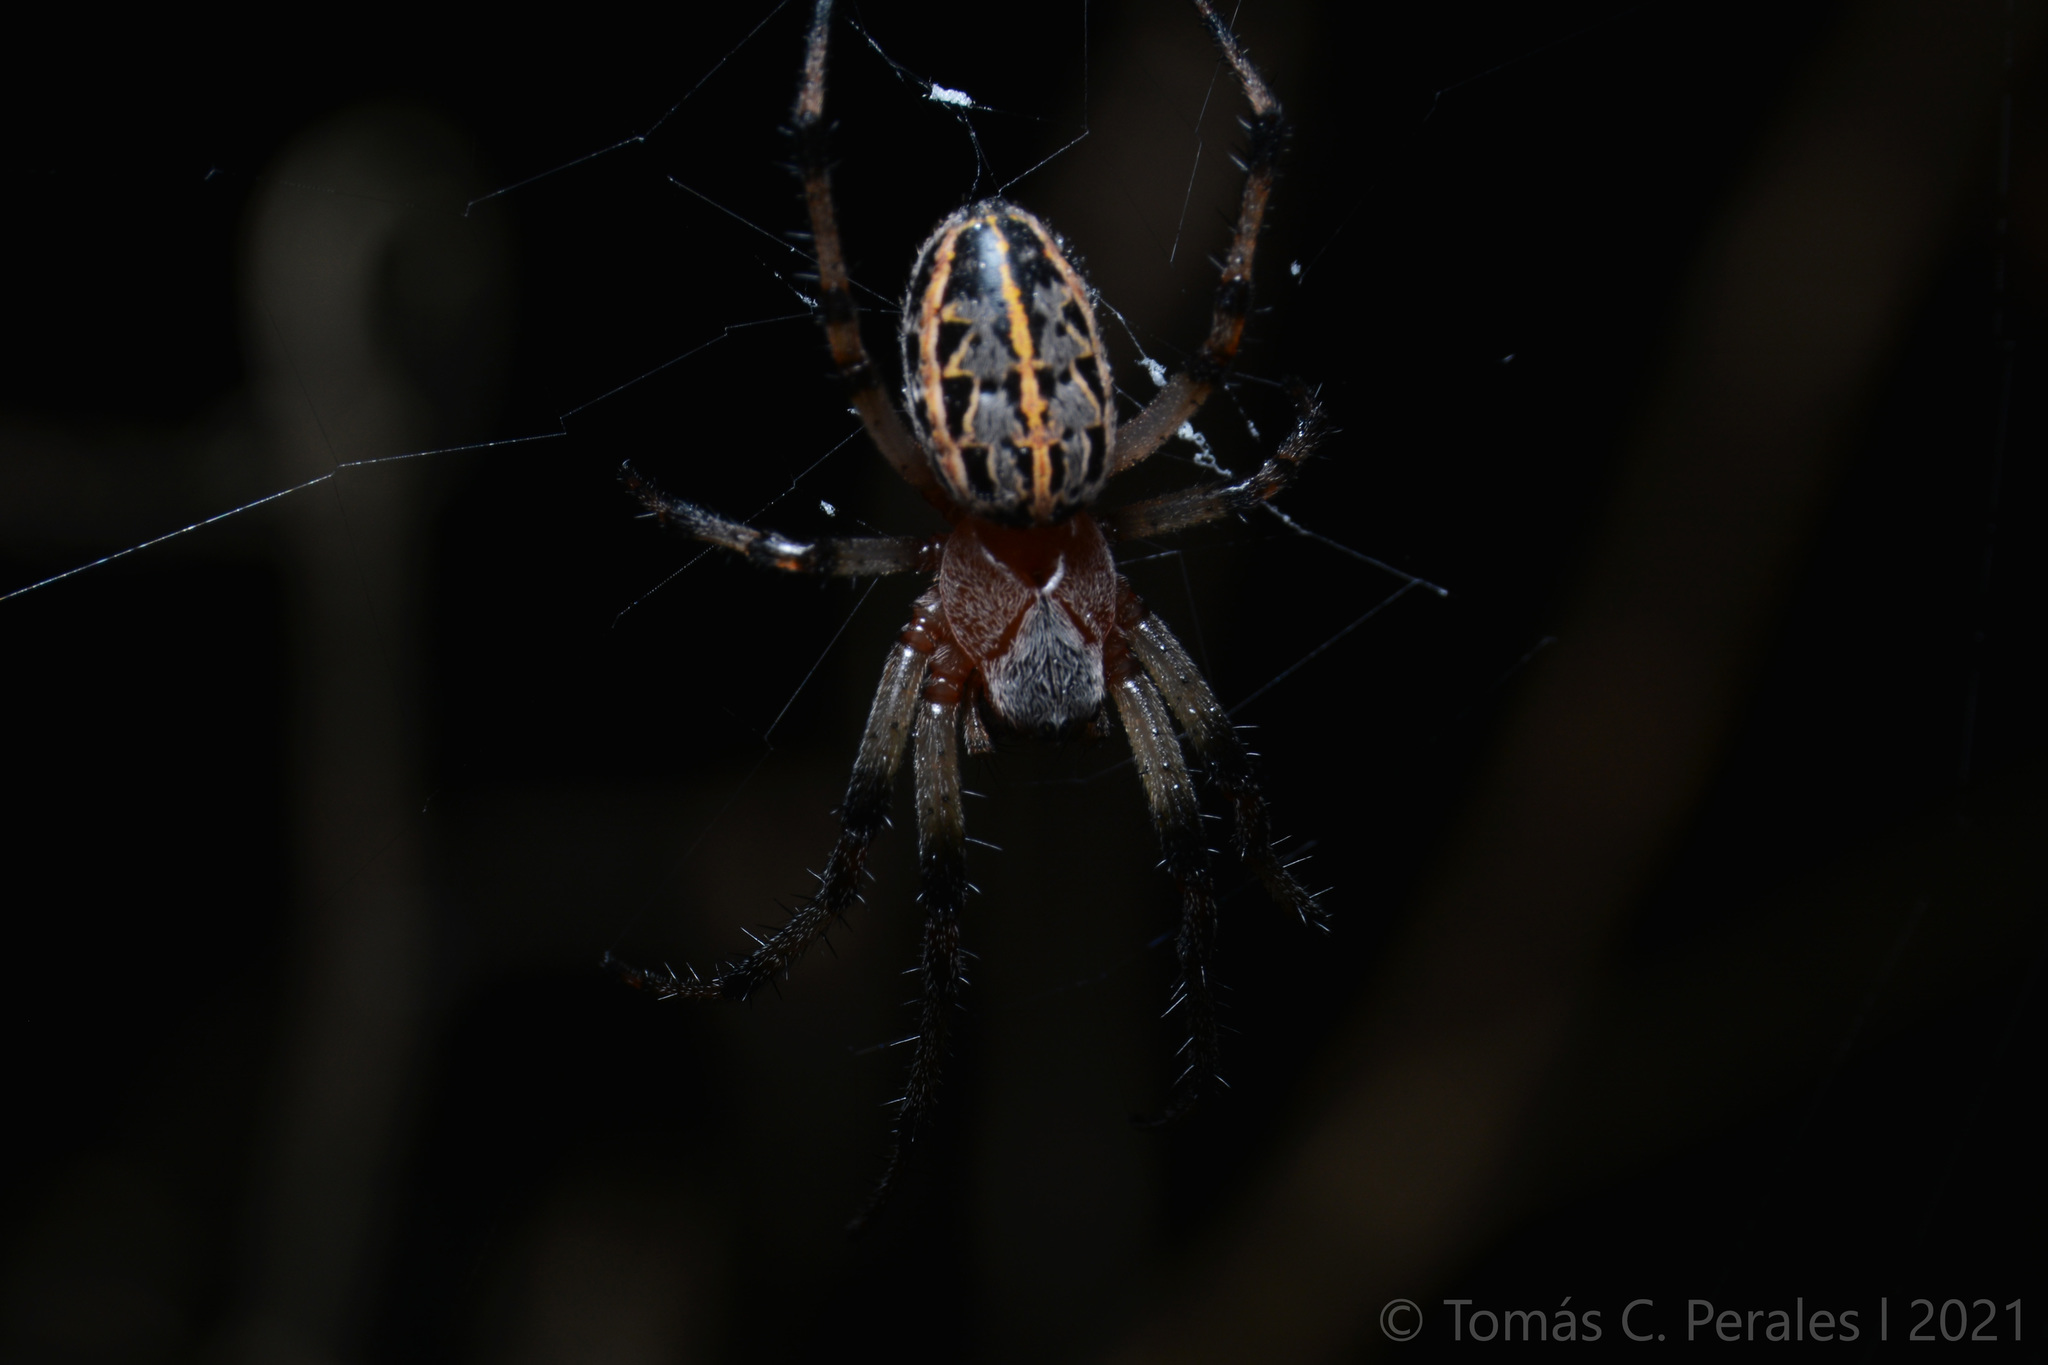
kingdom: Animalia
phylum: Arthropoda
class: Arachnida
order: Araneae
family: Araneidae
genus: Alpaida
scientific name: Alpaida veniliae
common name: Orb weavers
